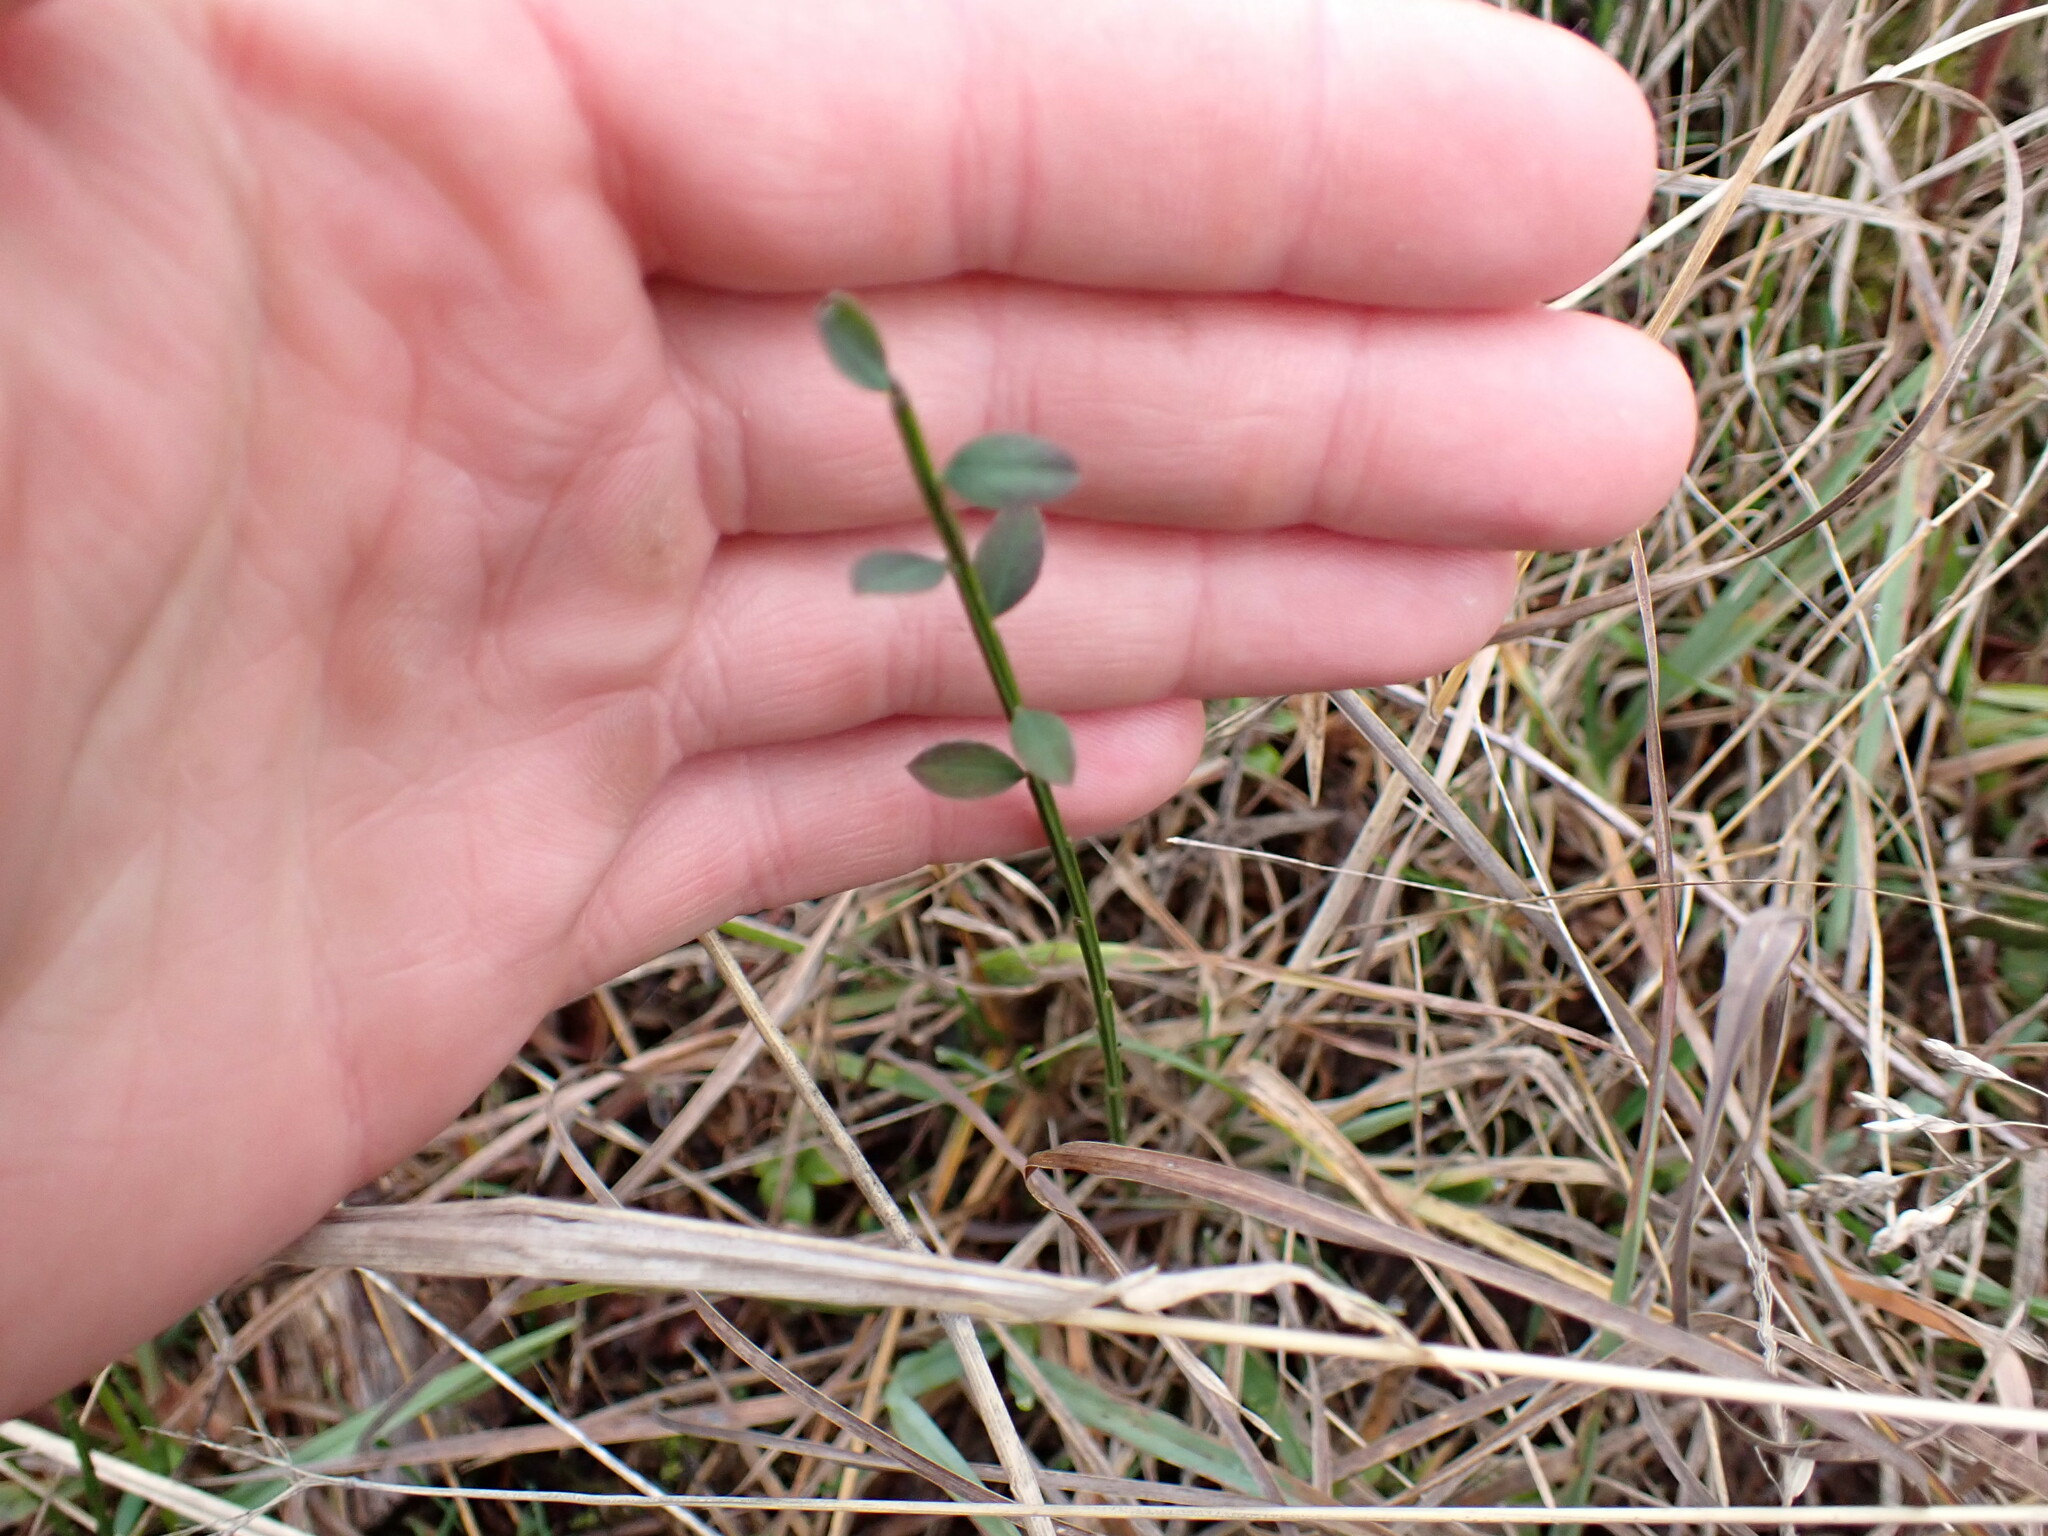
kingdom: Plantae
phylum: Tracheophyta
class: Magnoliopsida
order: Fabales
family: Fabaceae
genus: Cytisus
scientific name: Cytisus scoparius
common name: Scotch broom
